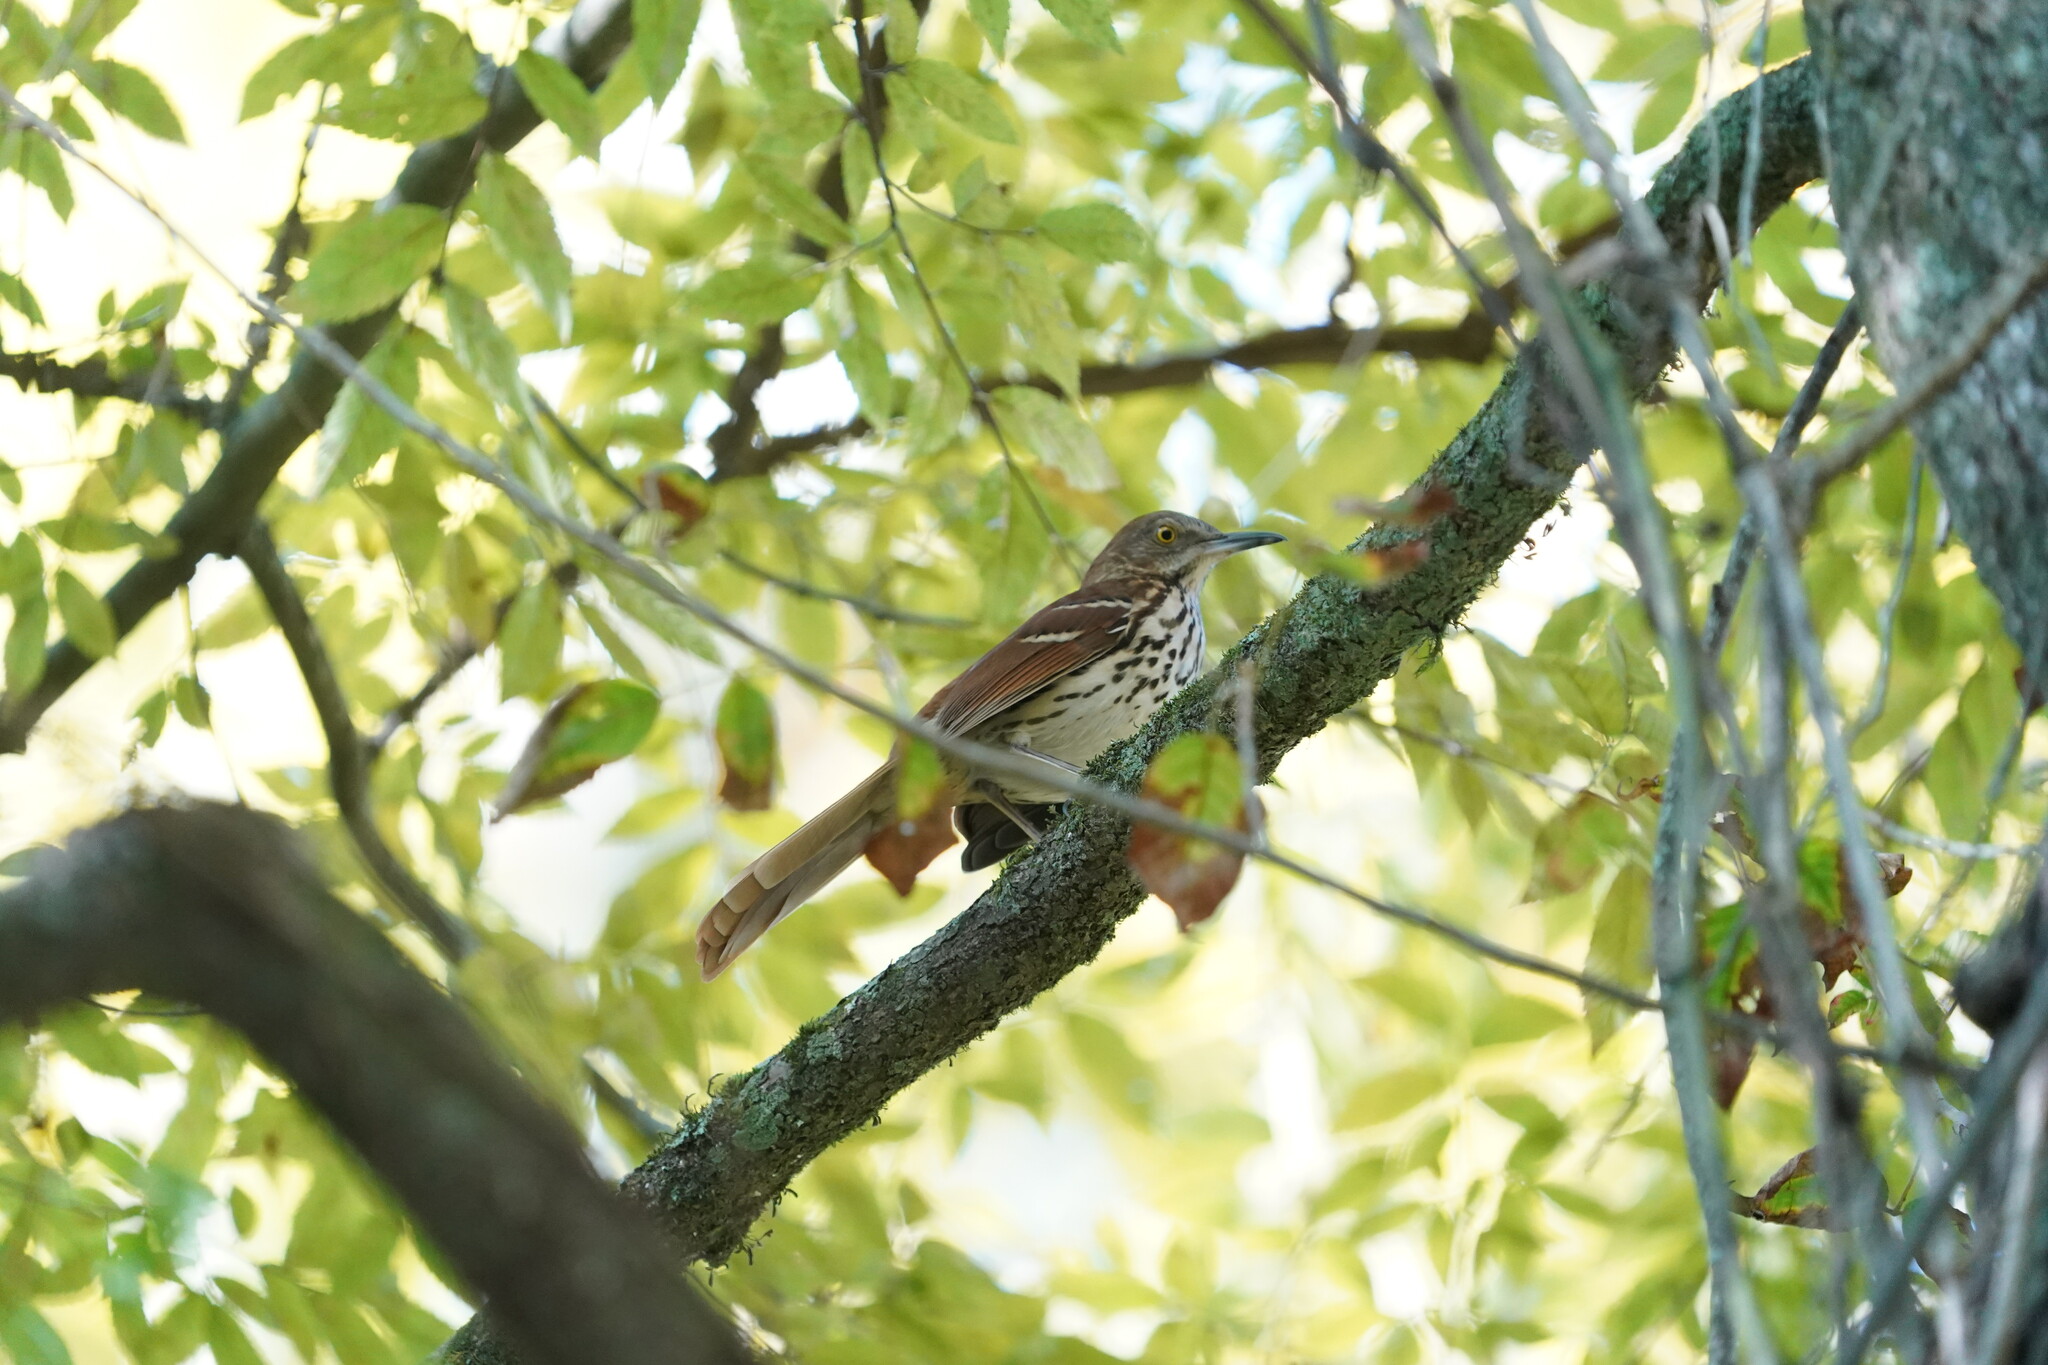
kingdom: Animalia
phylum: Chordata
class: Aves
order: Passeriformes
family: Mimidae
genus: Toxostoma
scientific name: Toxostoma rufum
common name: Brown thrasher
